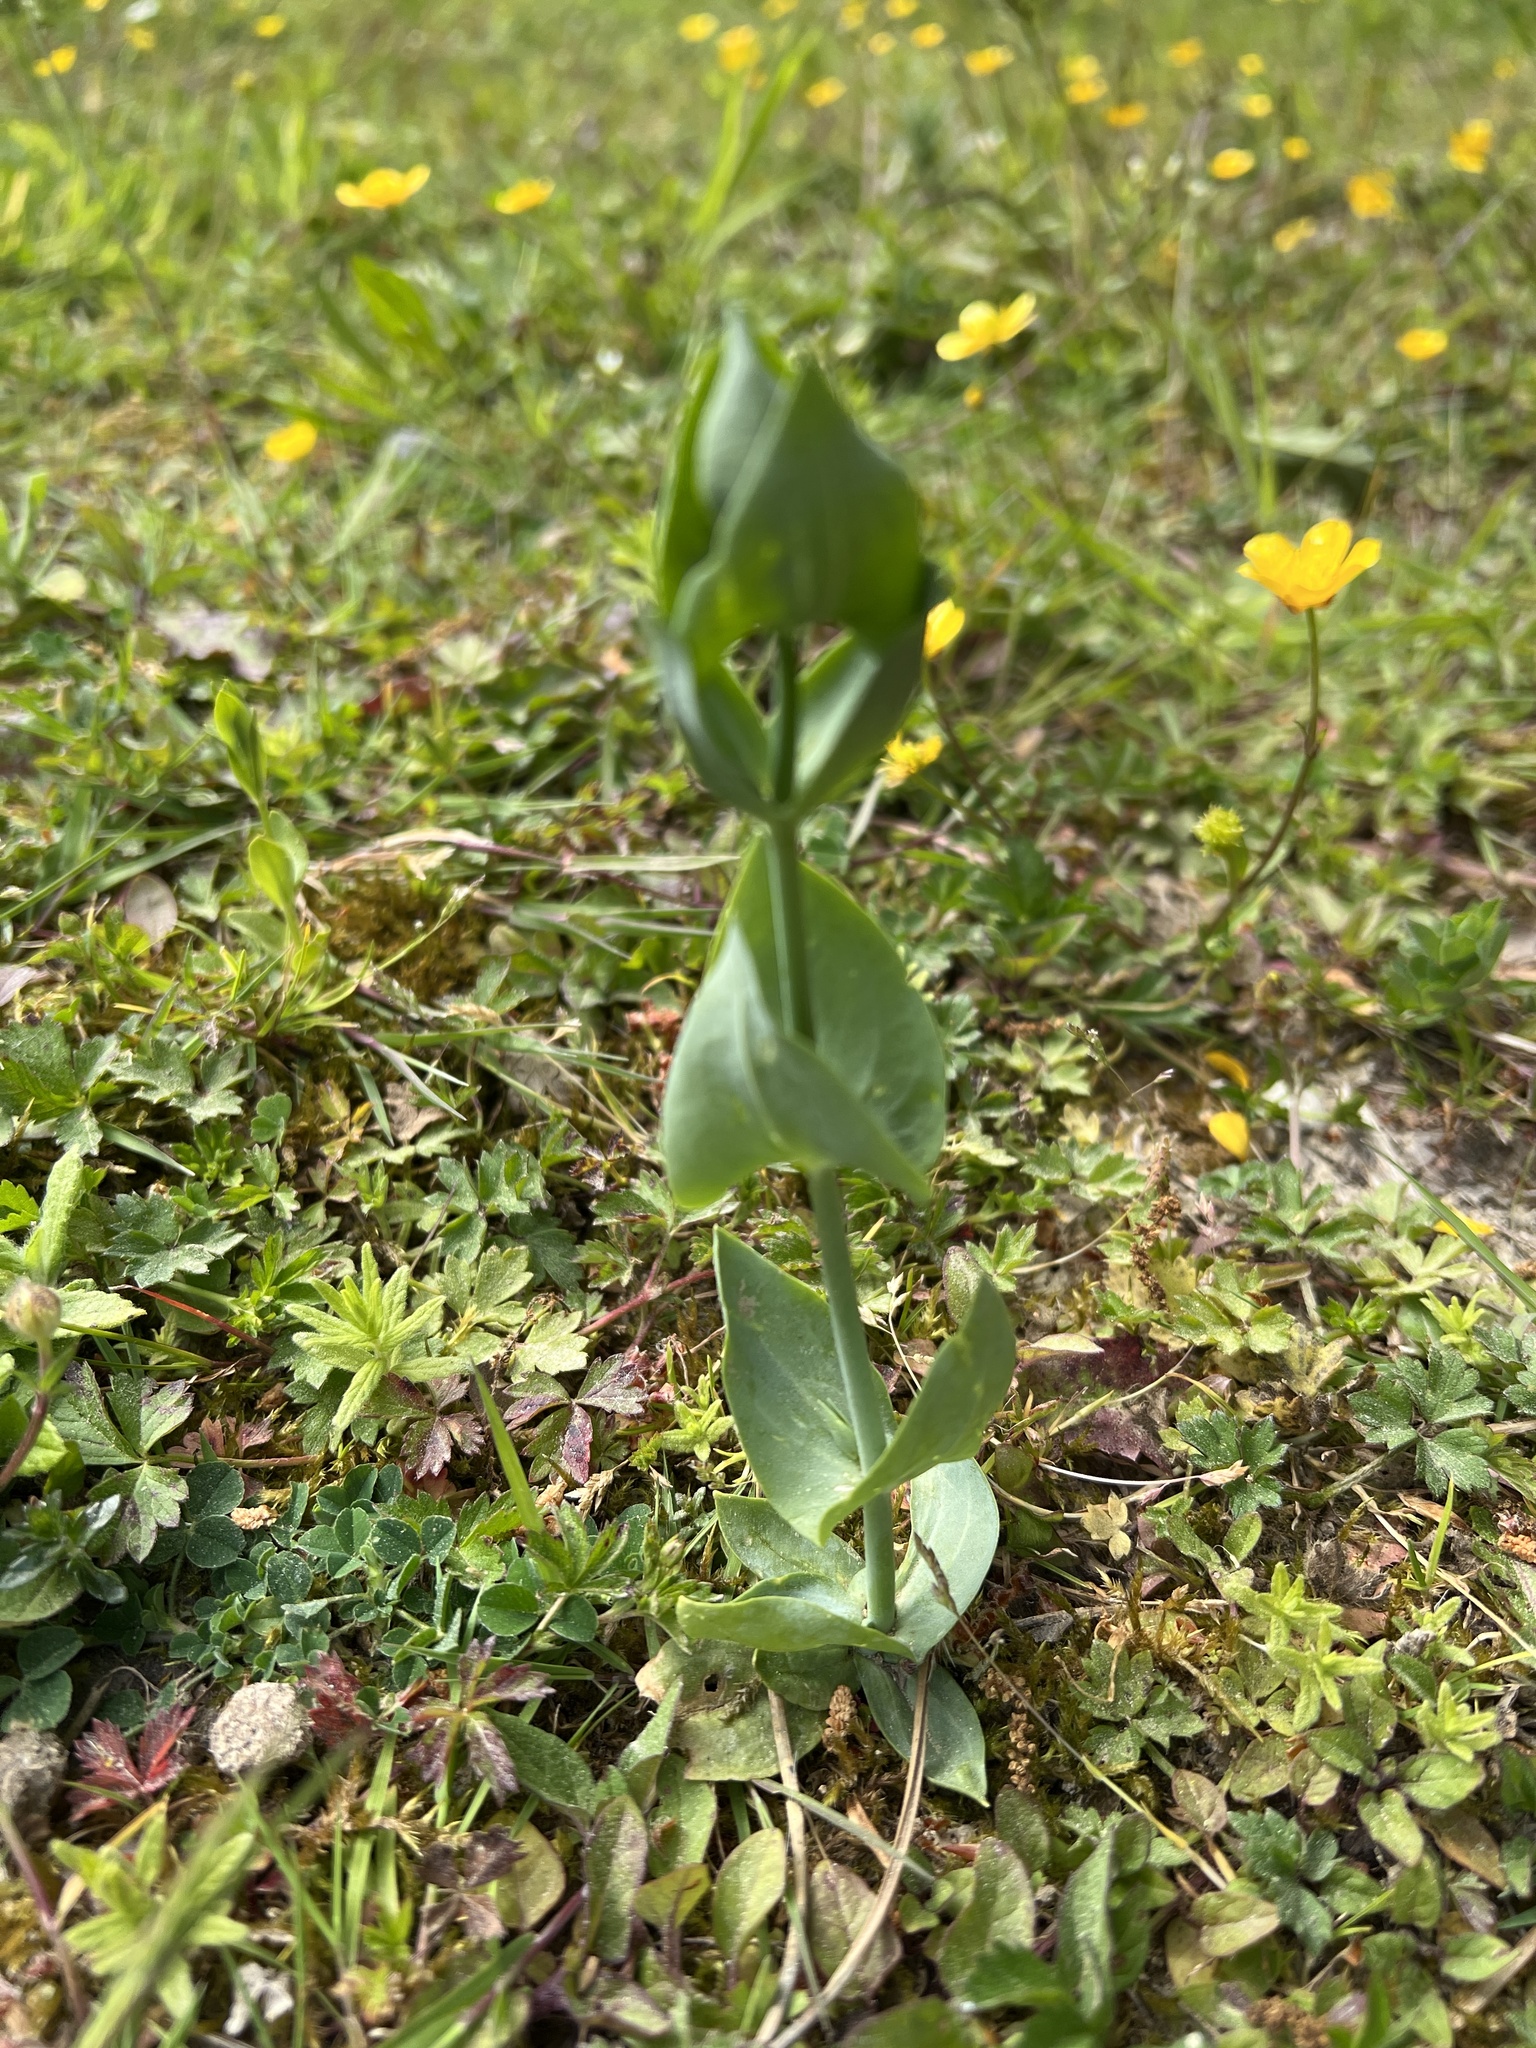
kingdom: Plantae
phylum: Tracheophyta
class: Magnoliopsida
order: Gentianales
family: Gentianaceae
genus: Blackstonia
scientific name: Blackstonia perfoliata
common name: Yellow-wort
